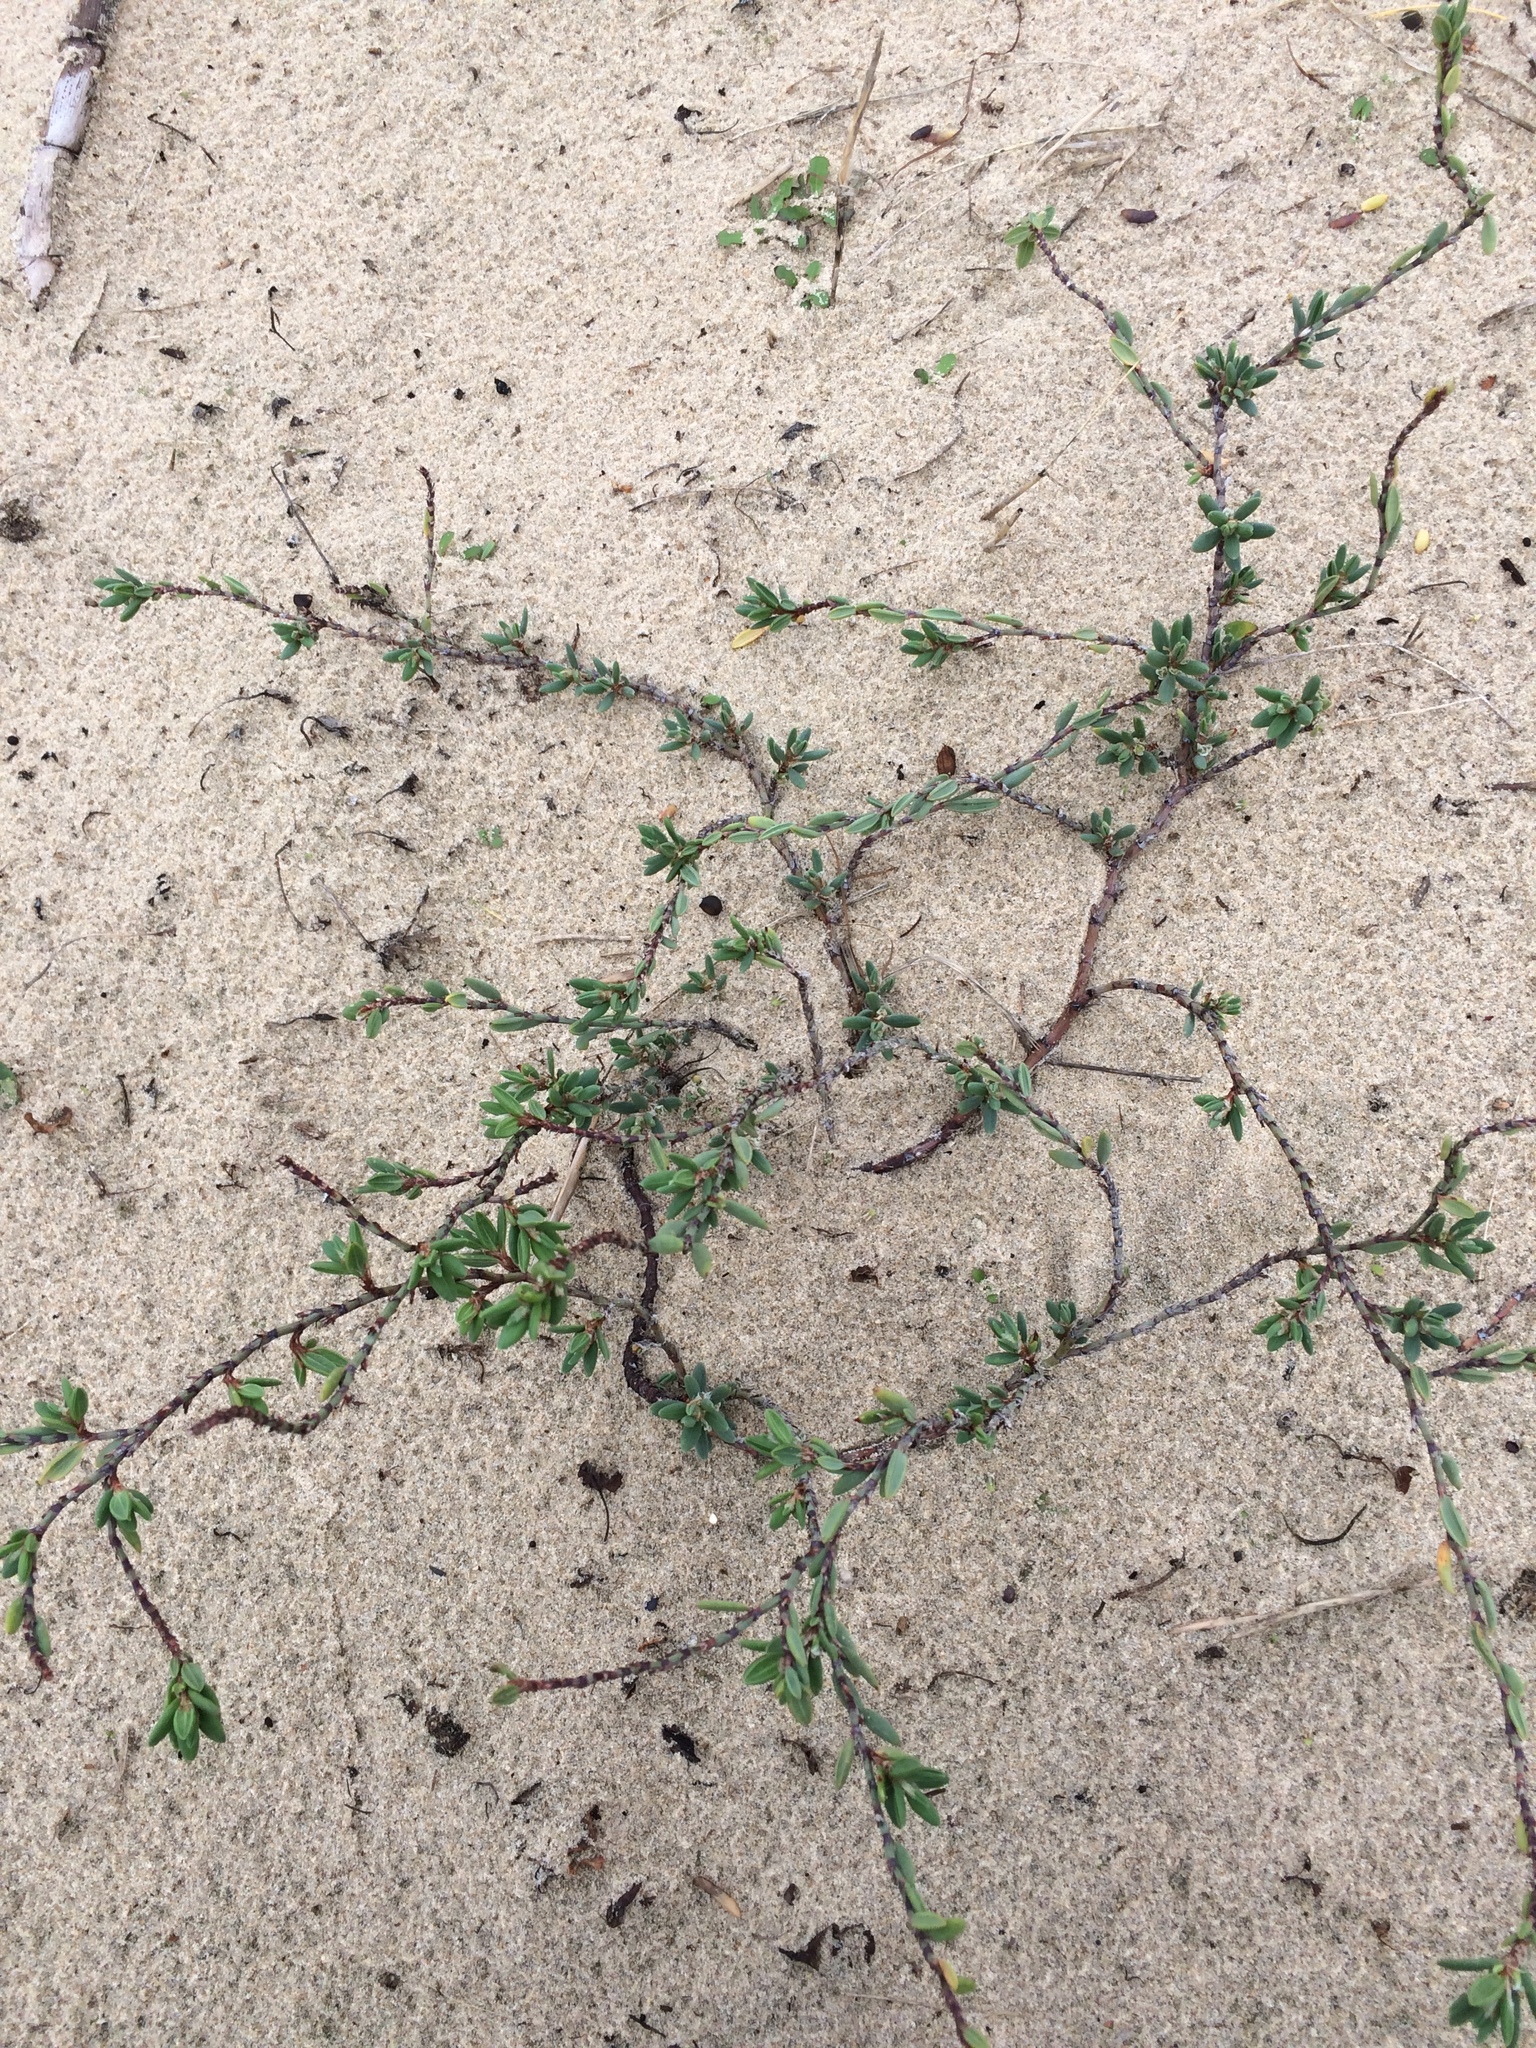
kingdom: Plantae
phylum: Tracheophyta
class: Magnoliopsida
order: Caryophyllales
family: Polygonaceae
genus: Polygonum
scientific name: Polygonum maritimum
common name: Sea knotgrass
